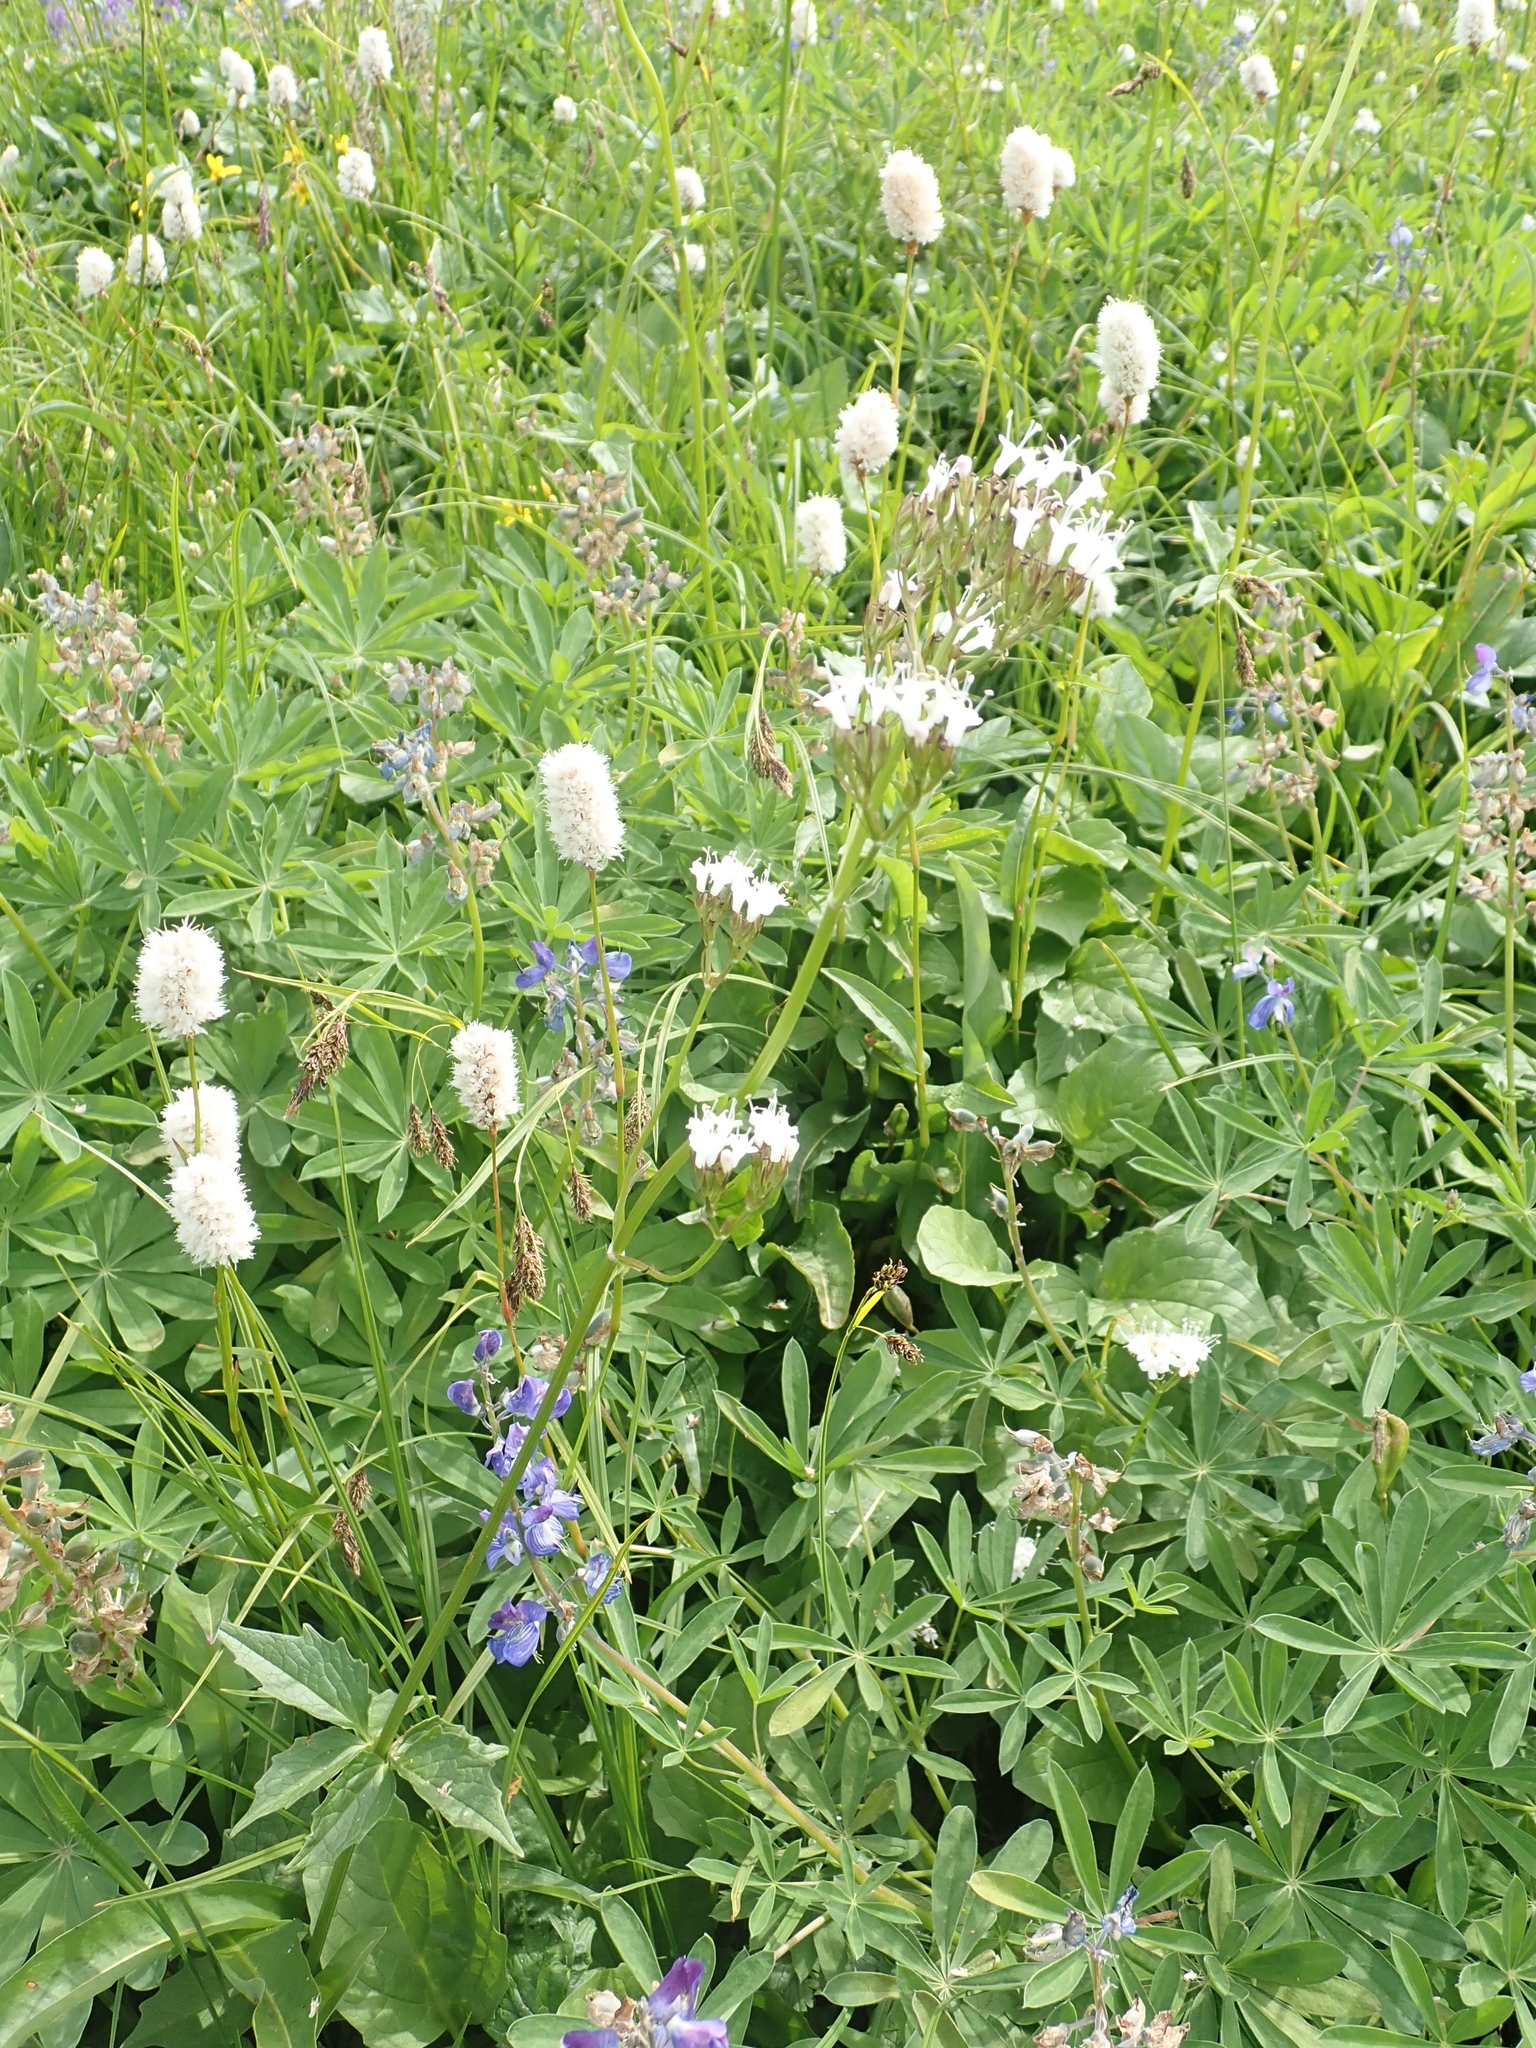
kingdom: Plantae
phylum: Tracheophyta
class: Magnoliopsida
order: Caryophyllales
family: Polygonaceae
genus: Bistorta
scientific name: Bistorta bistortoides
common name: American bistort
